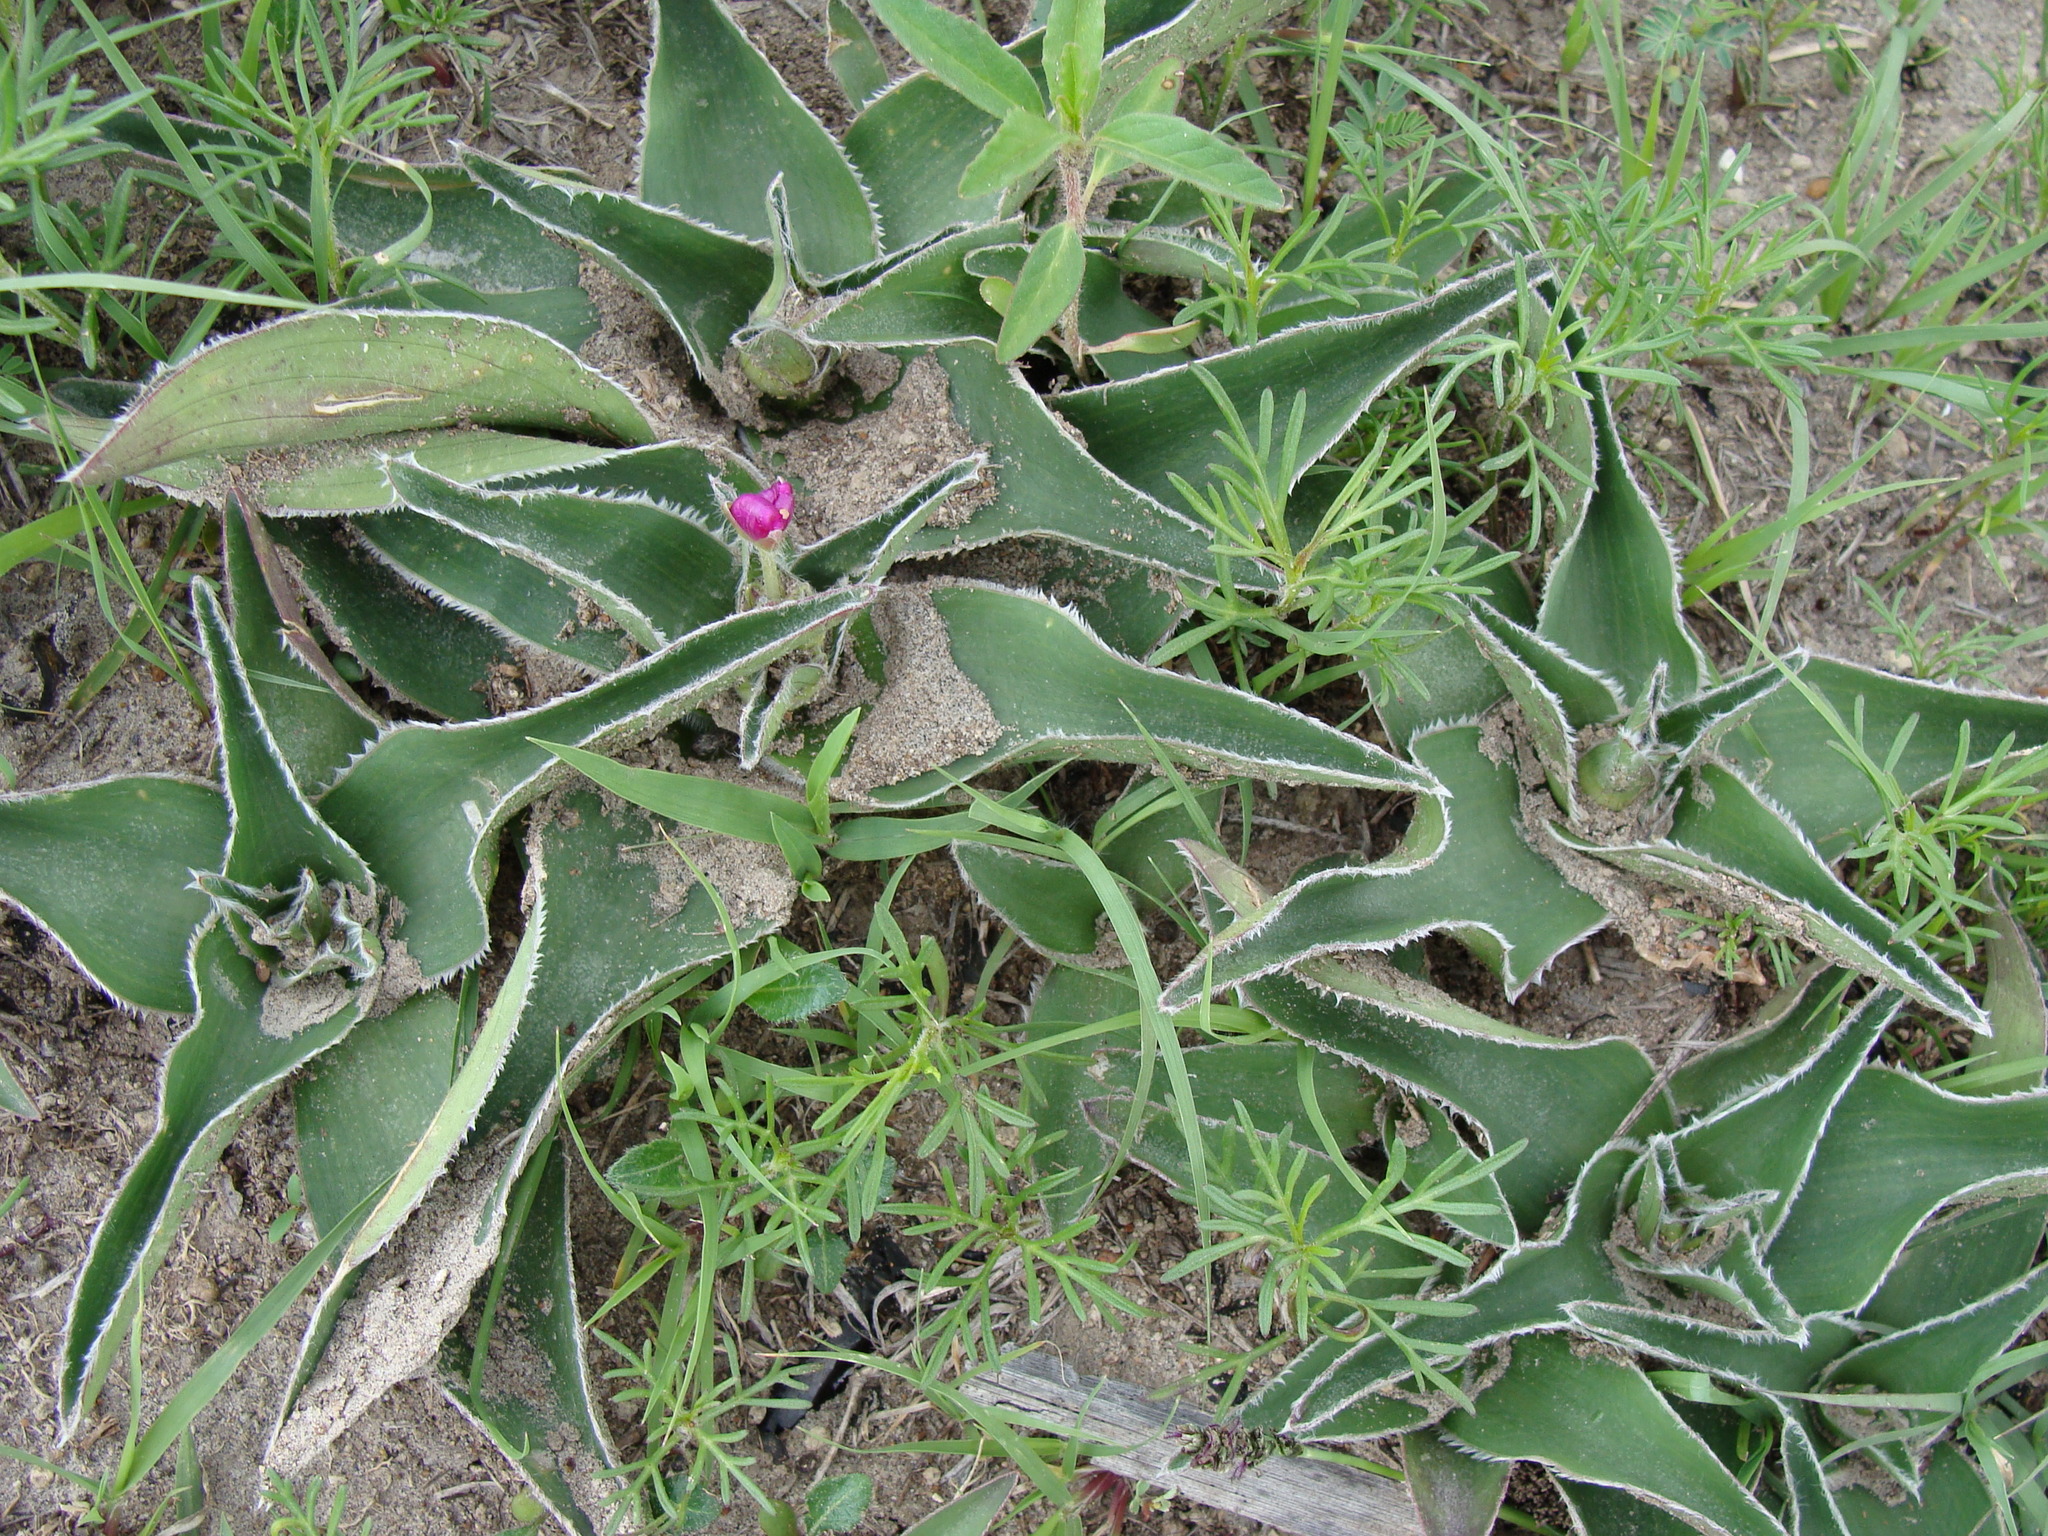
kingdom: Plantae
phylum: Tracheophyta
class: Liliopsida
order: Commelinales
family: Commelinaceae
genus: Tradescantia
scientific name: Tradescantia crassifolia
